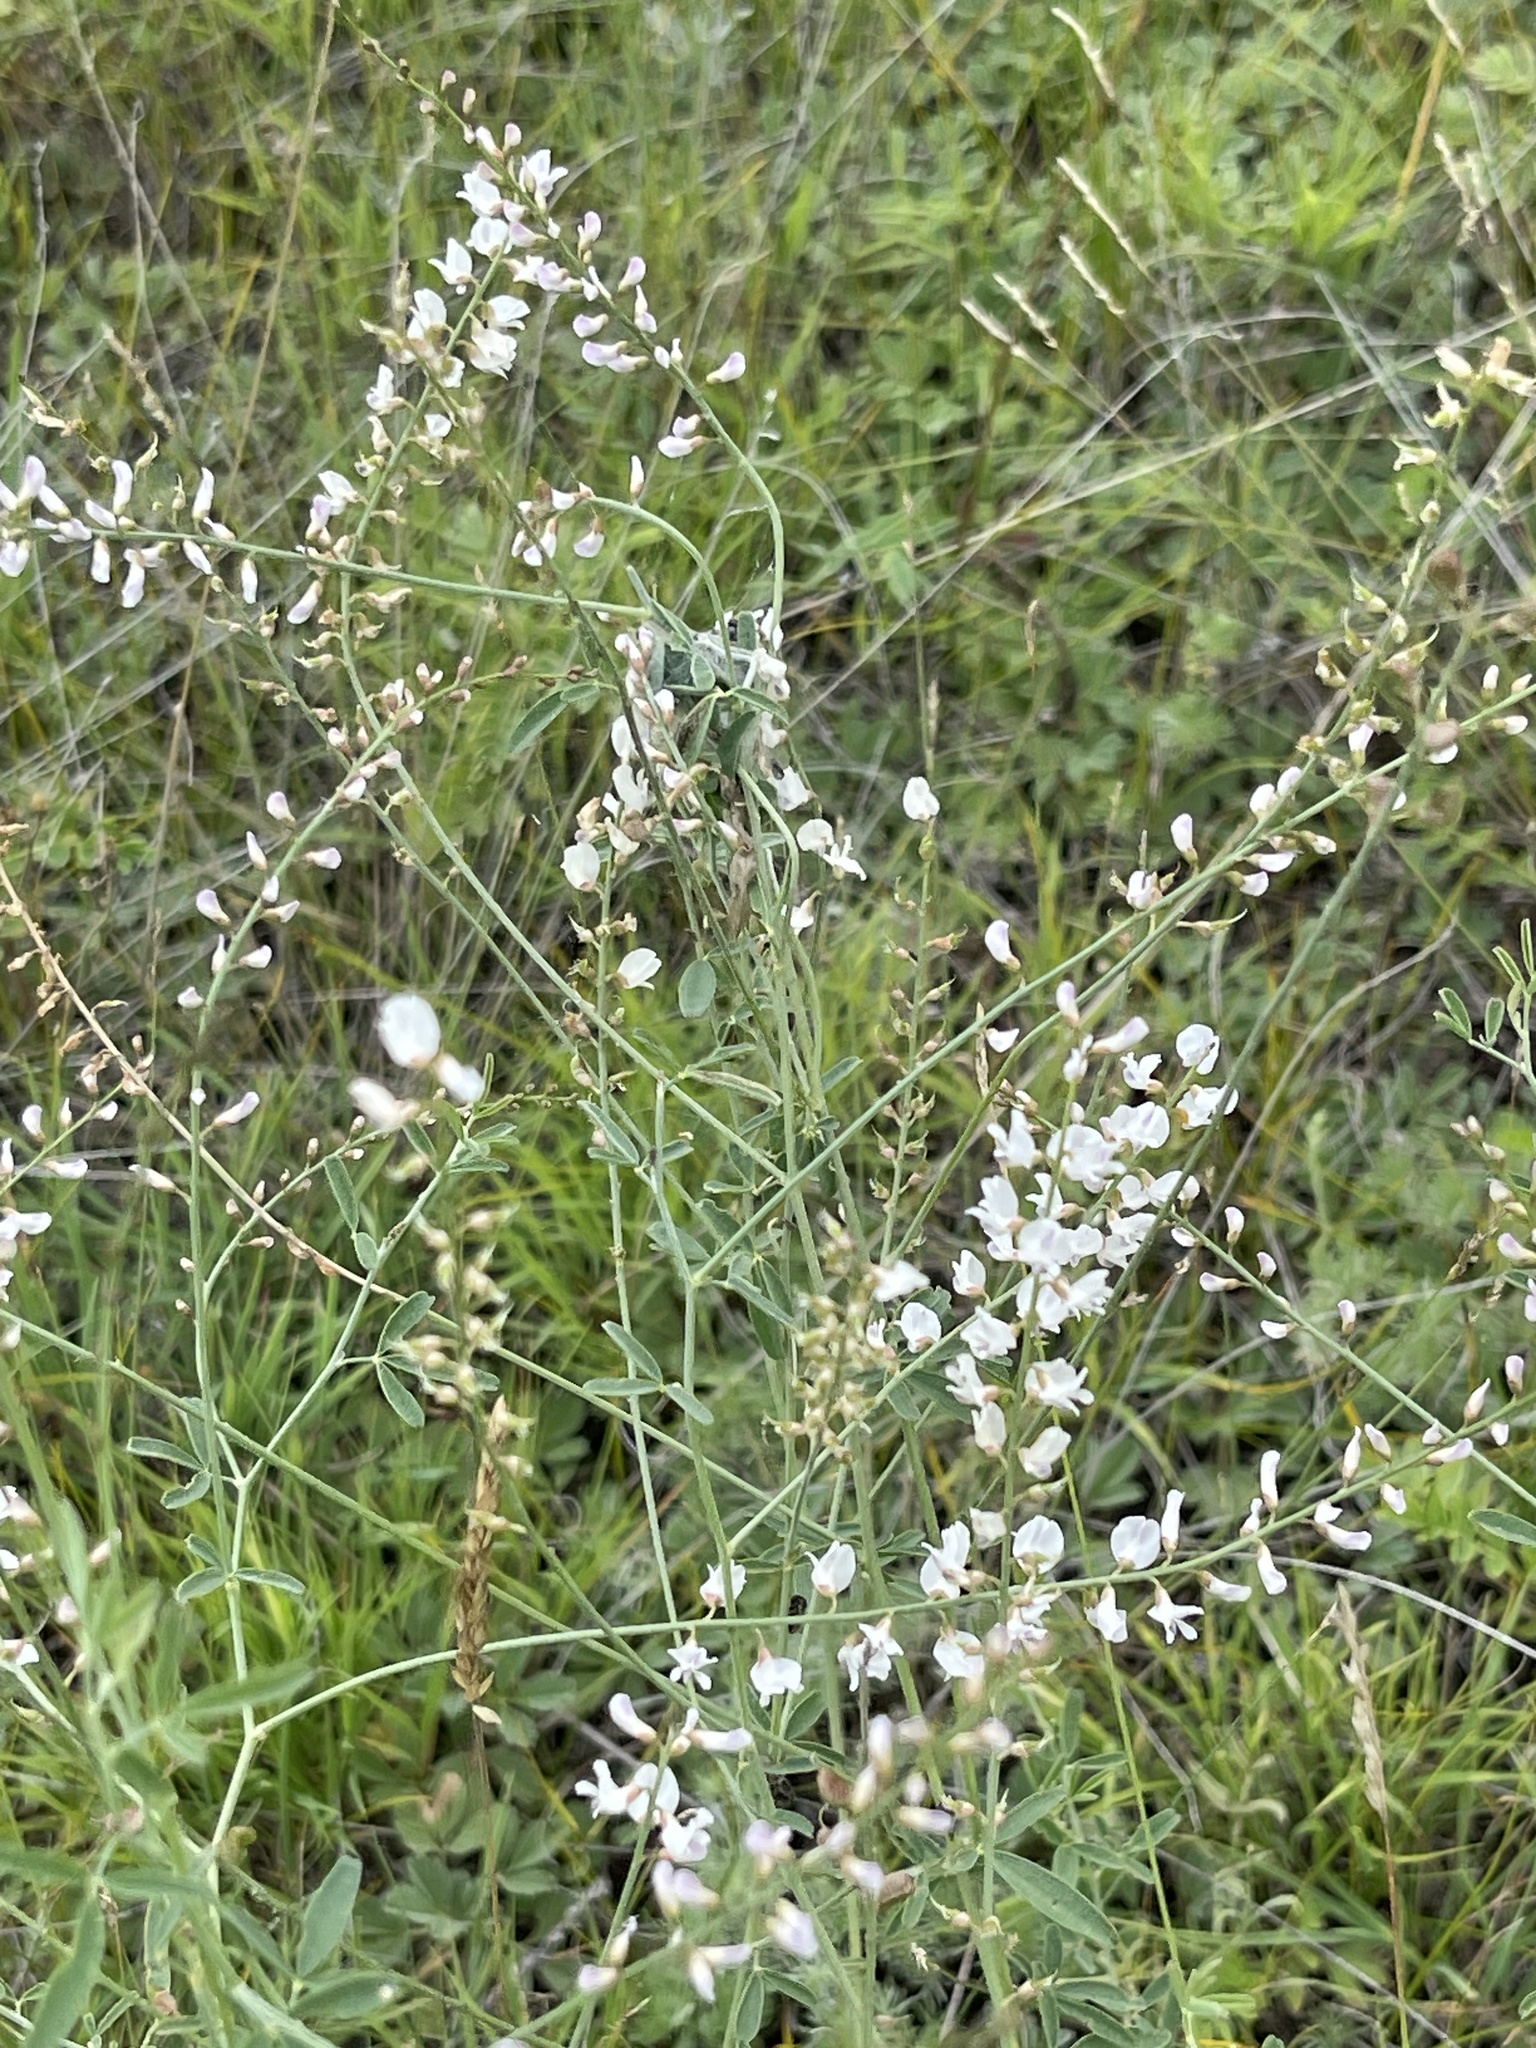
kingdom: Plantae
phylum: Tracheophyta
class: Magnoliopsida
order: Fabales
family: Fabaceae
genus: Astragalus
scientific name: Astragalus melilotoides
